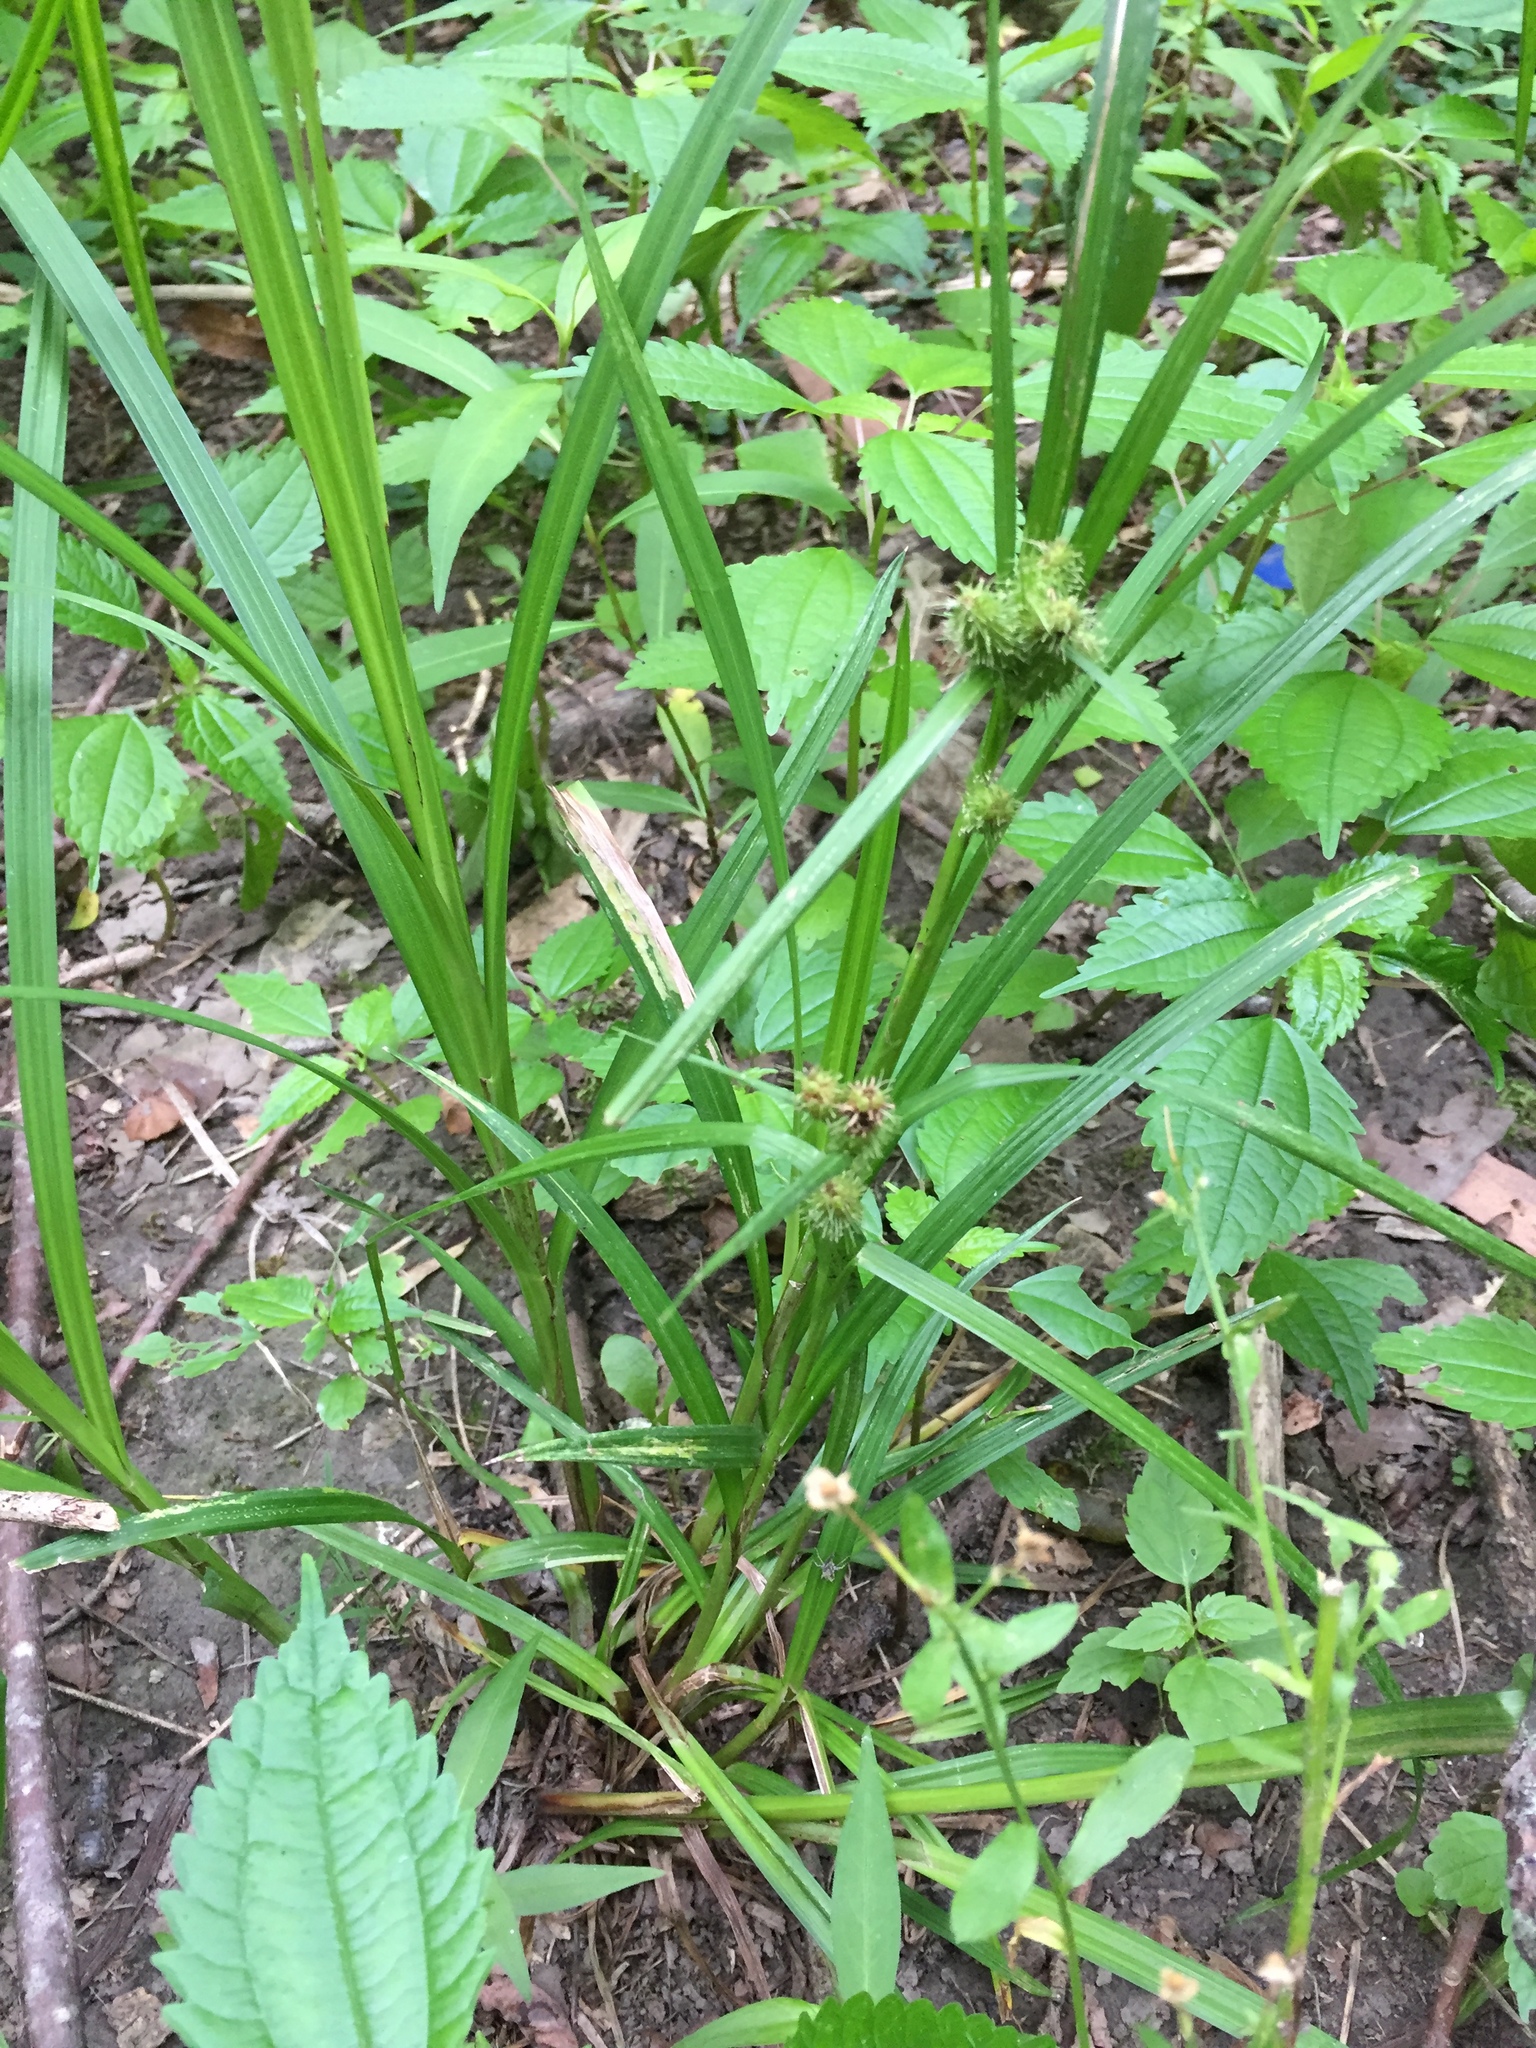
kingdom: Plantae
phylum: Tracheophyta
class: Liliopsida
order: Poales
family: Cyperaceae
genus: Carex
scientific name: Carex frankii
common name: Frank's sedge
